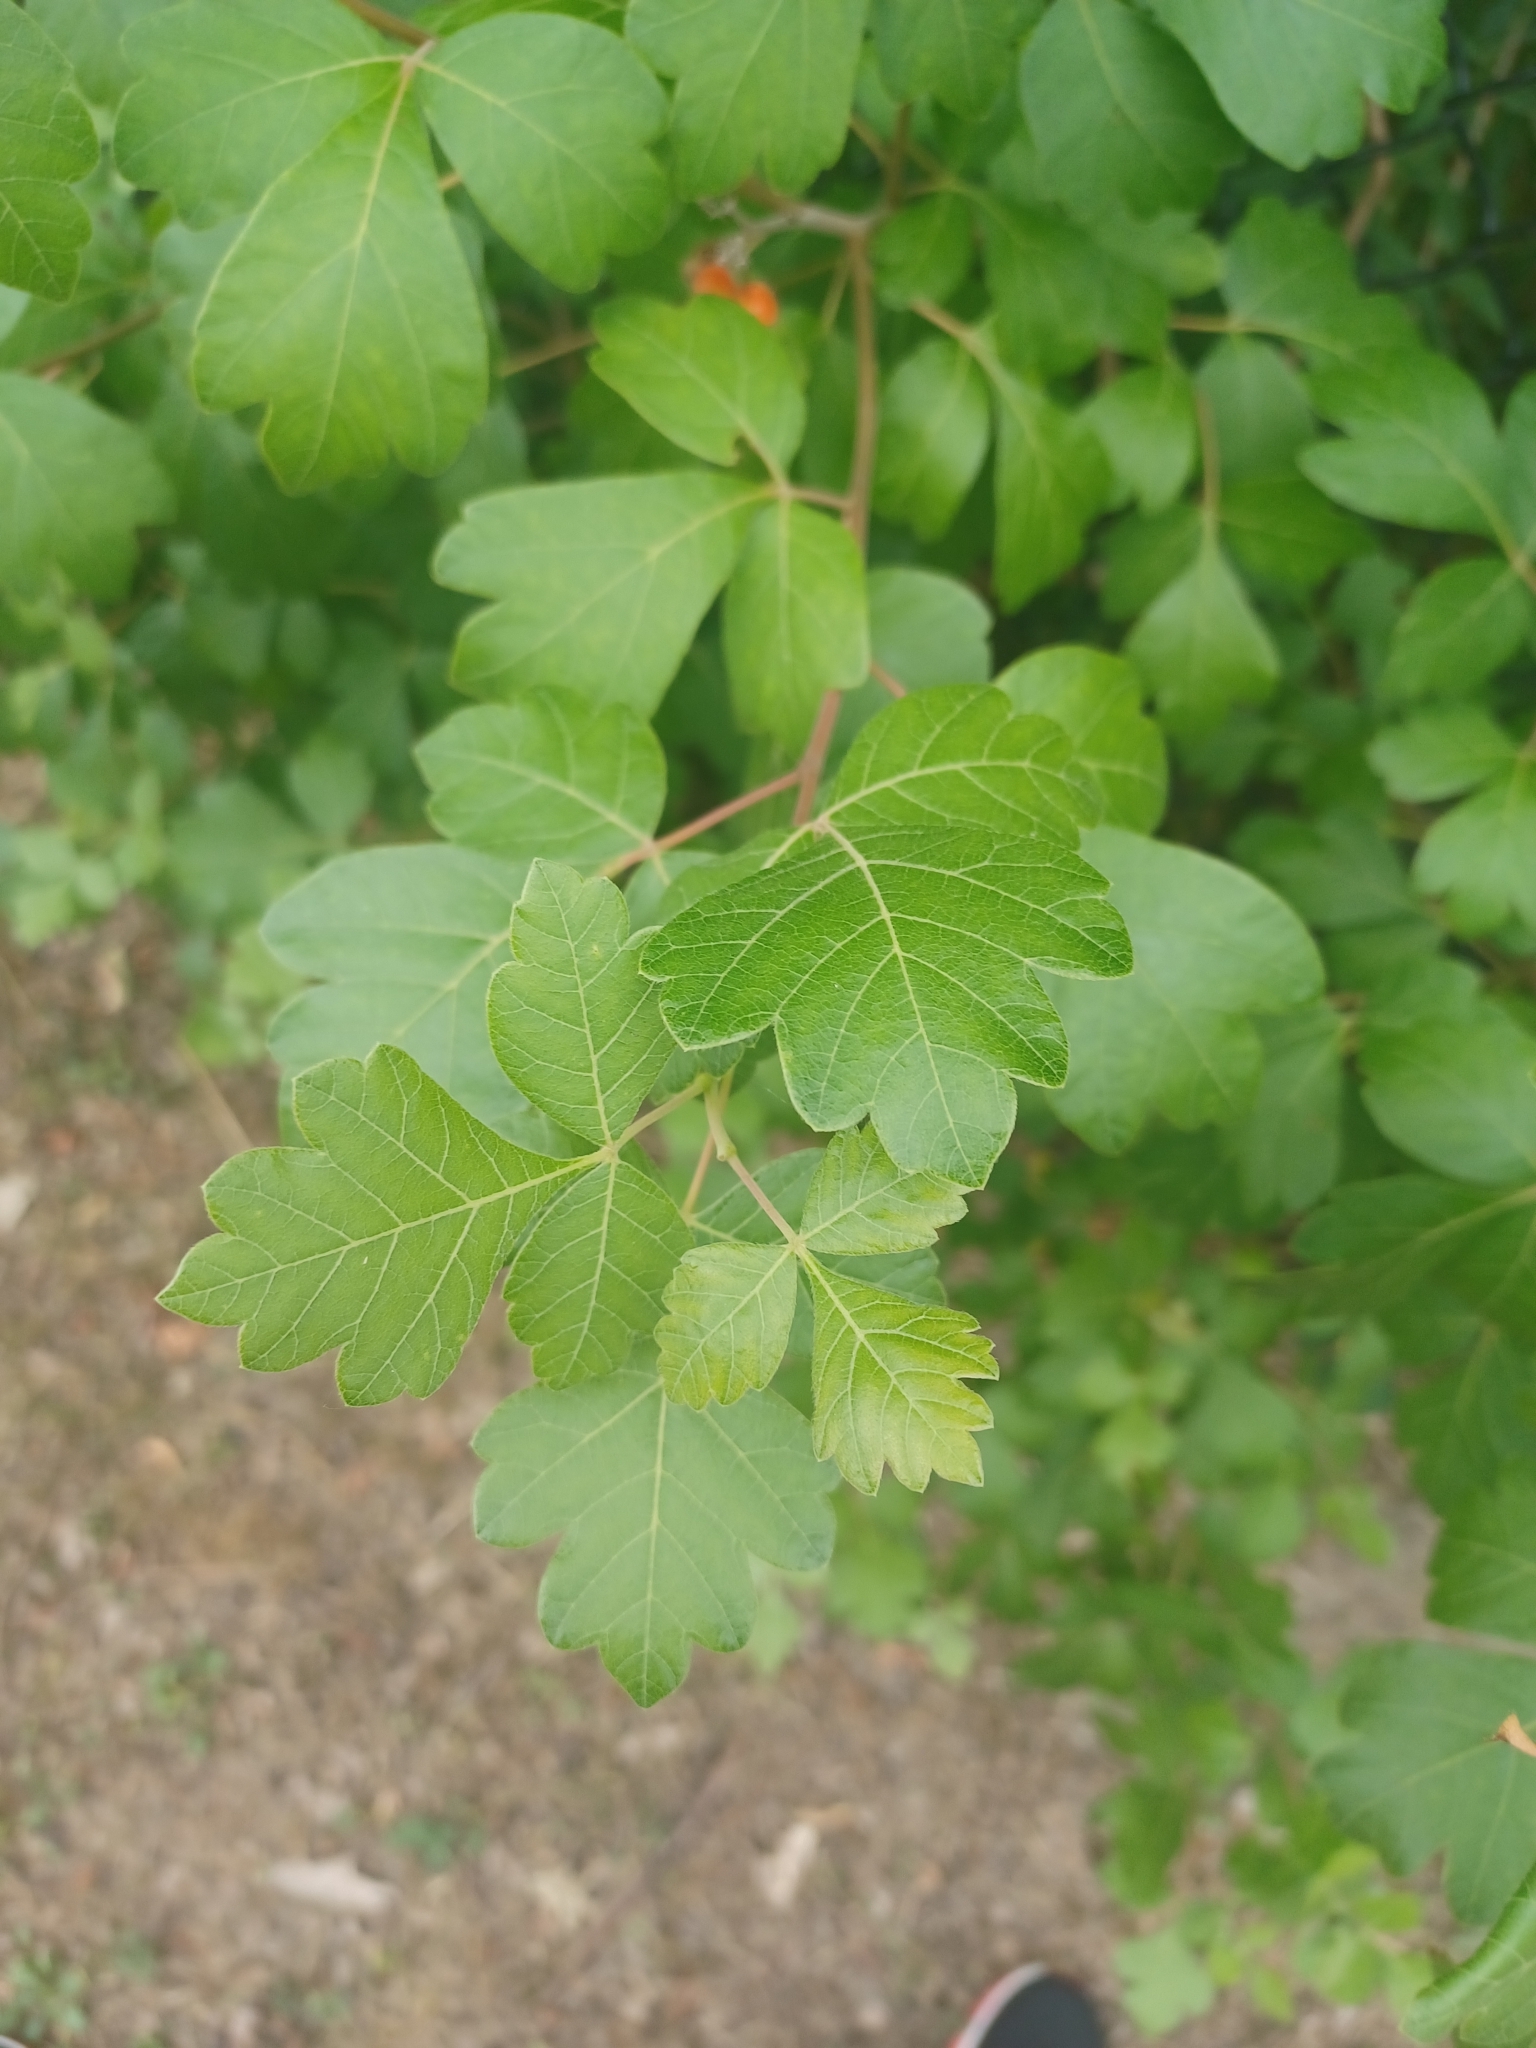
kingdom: Plantae
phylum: Tracheophyta
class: Magnoliopsida
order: Sapindales
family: Anacardiaceae
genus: Rhus
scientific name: Rhus aromatica
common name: Aromatic sumac
